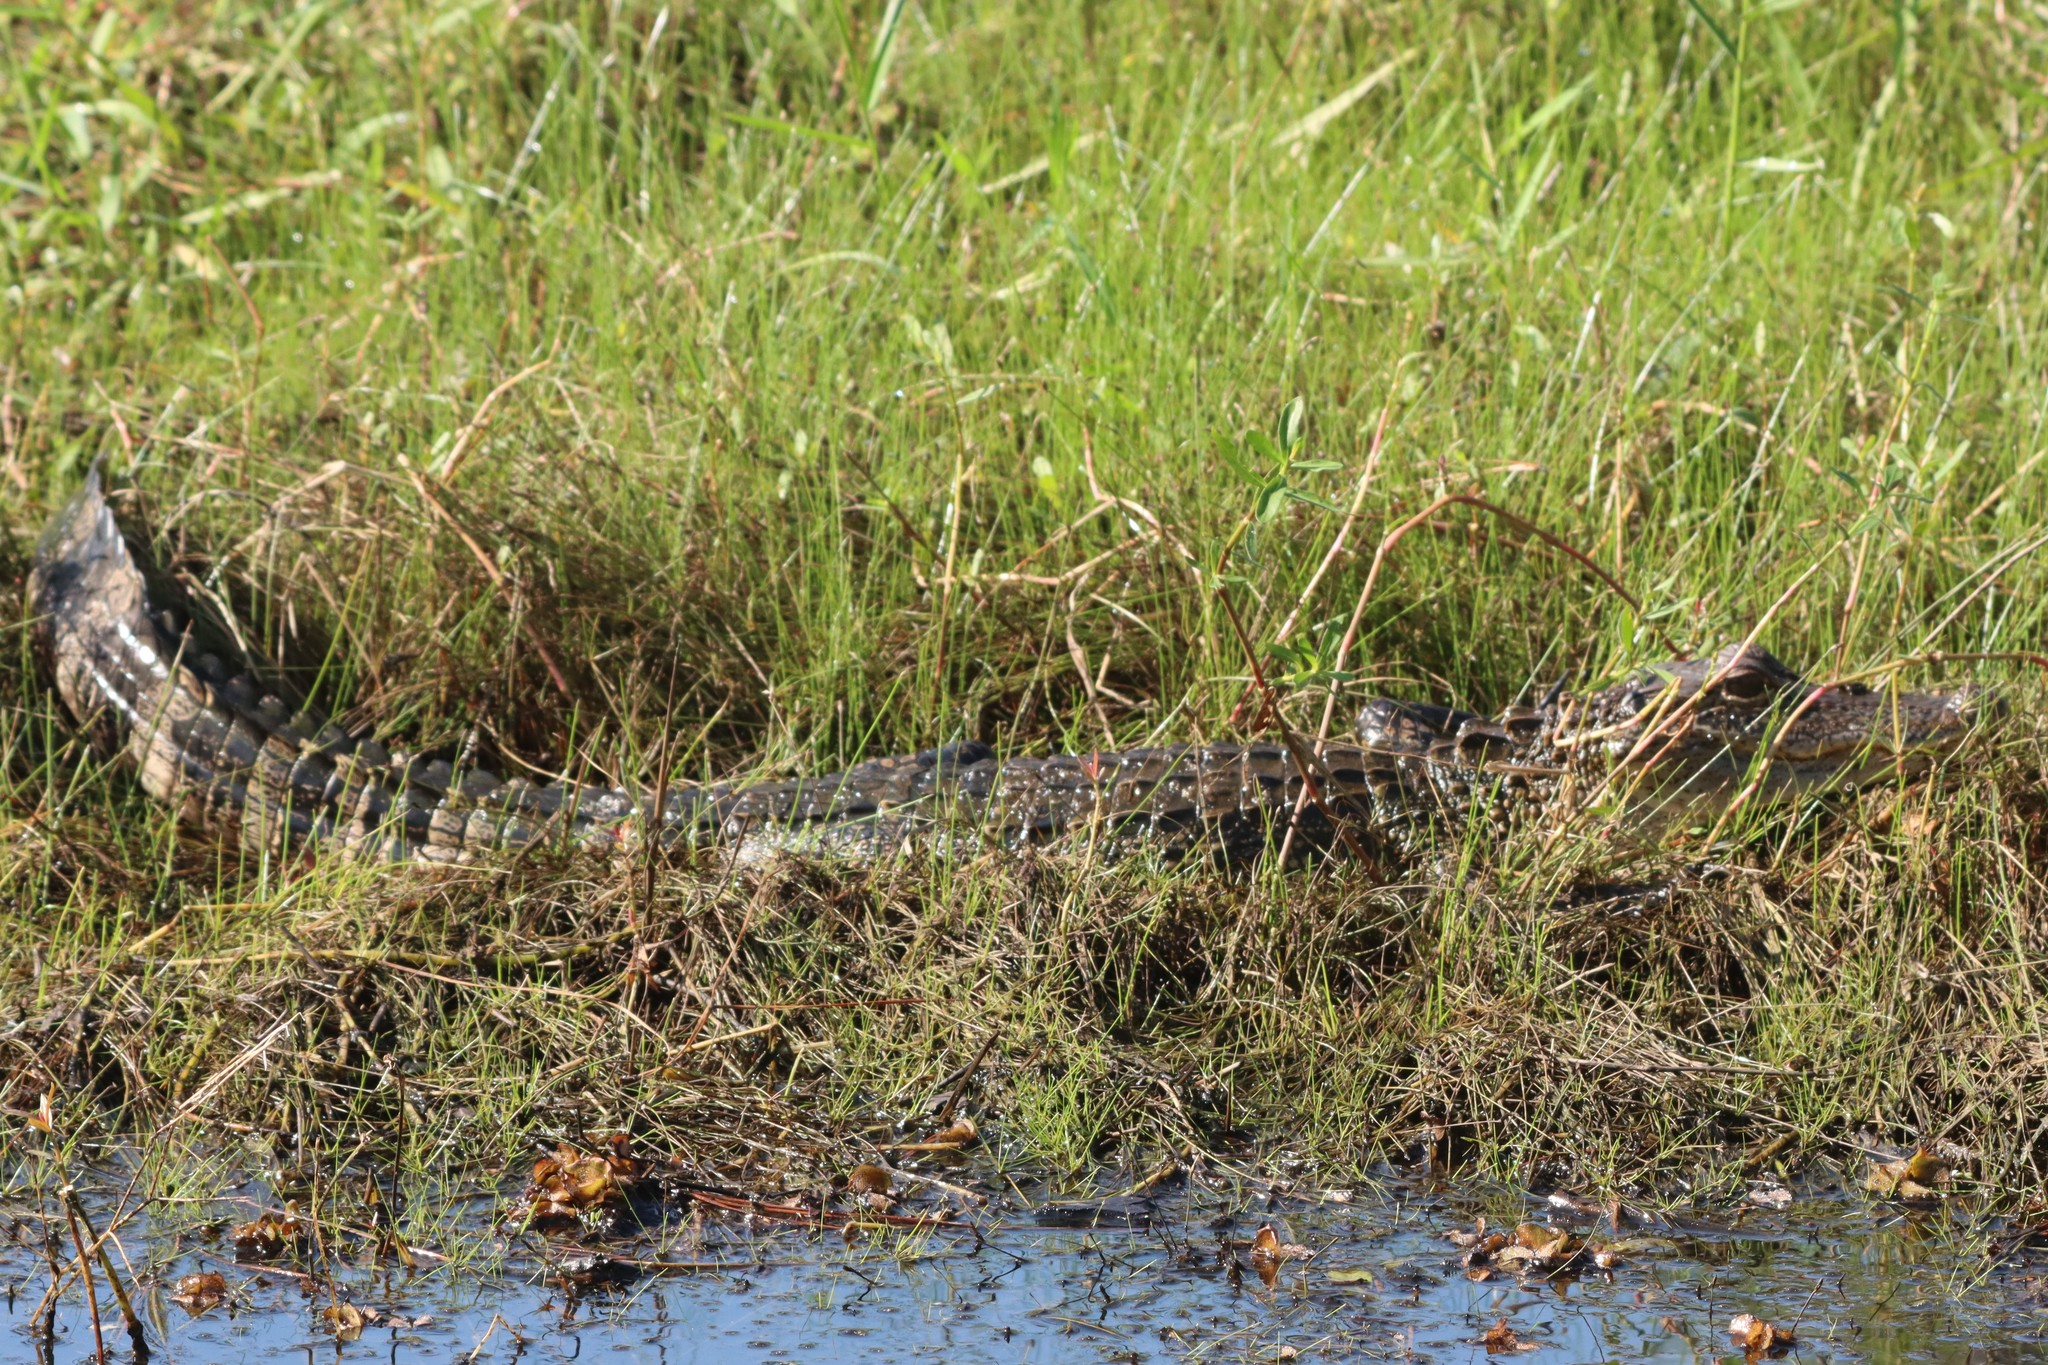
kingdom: Animalia
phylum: Chordata
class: Crocodylia
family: Alligatoridae
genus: Alligator
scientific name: Alligator mississippiensis
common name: American alligator
